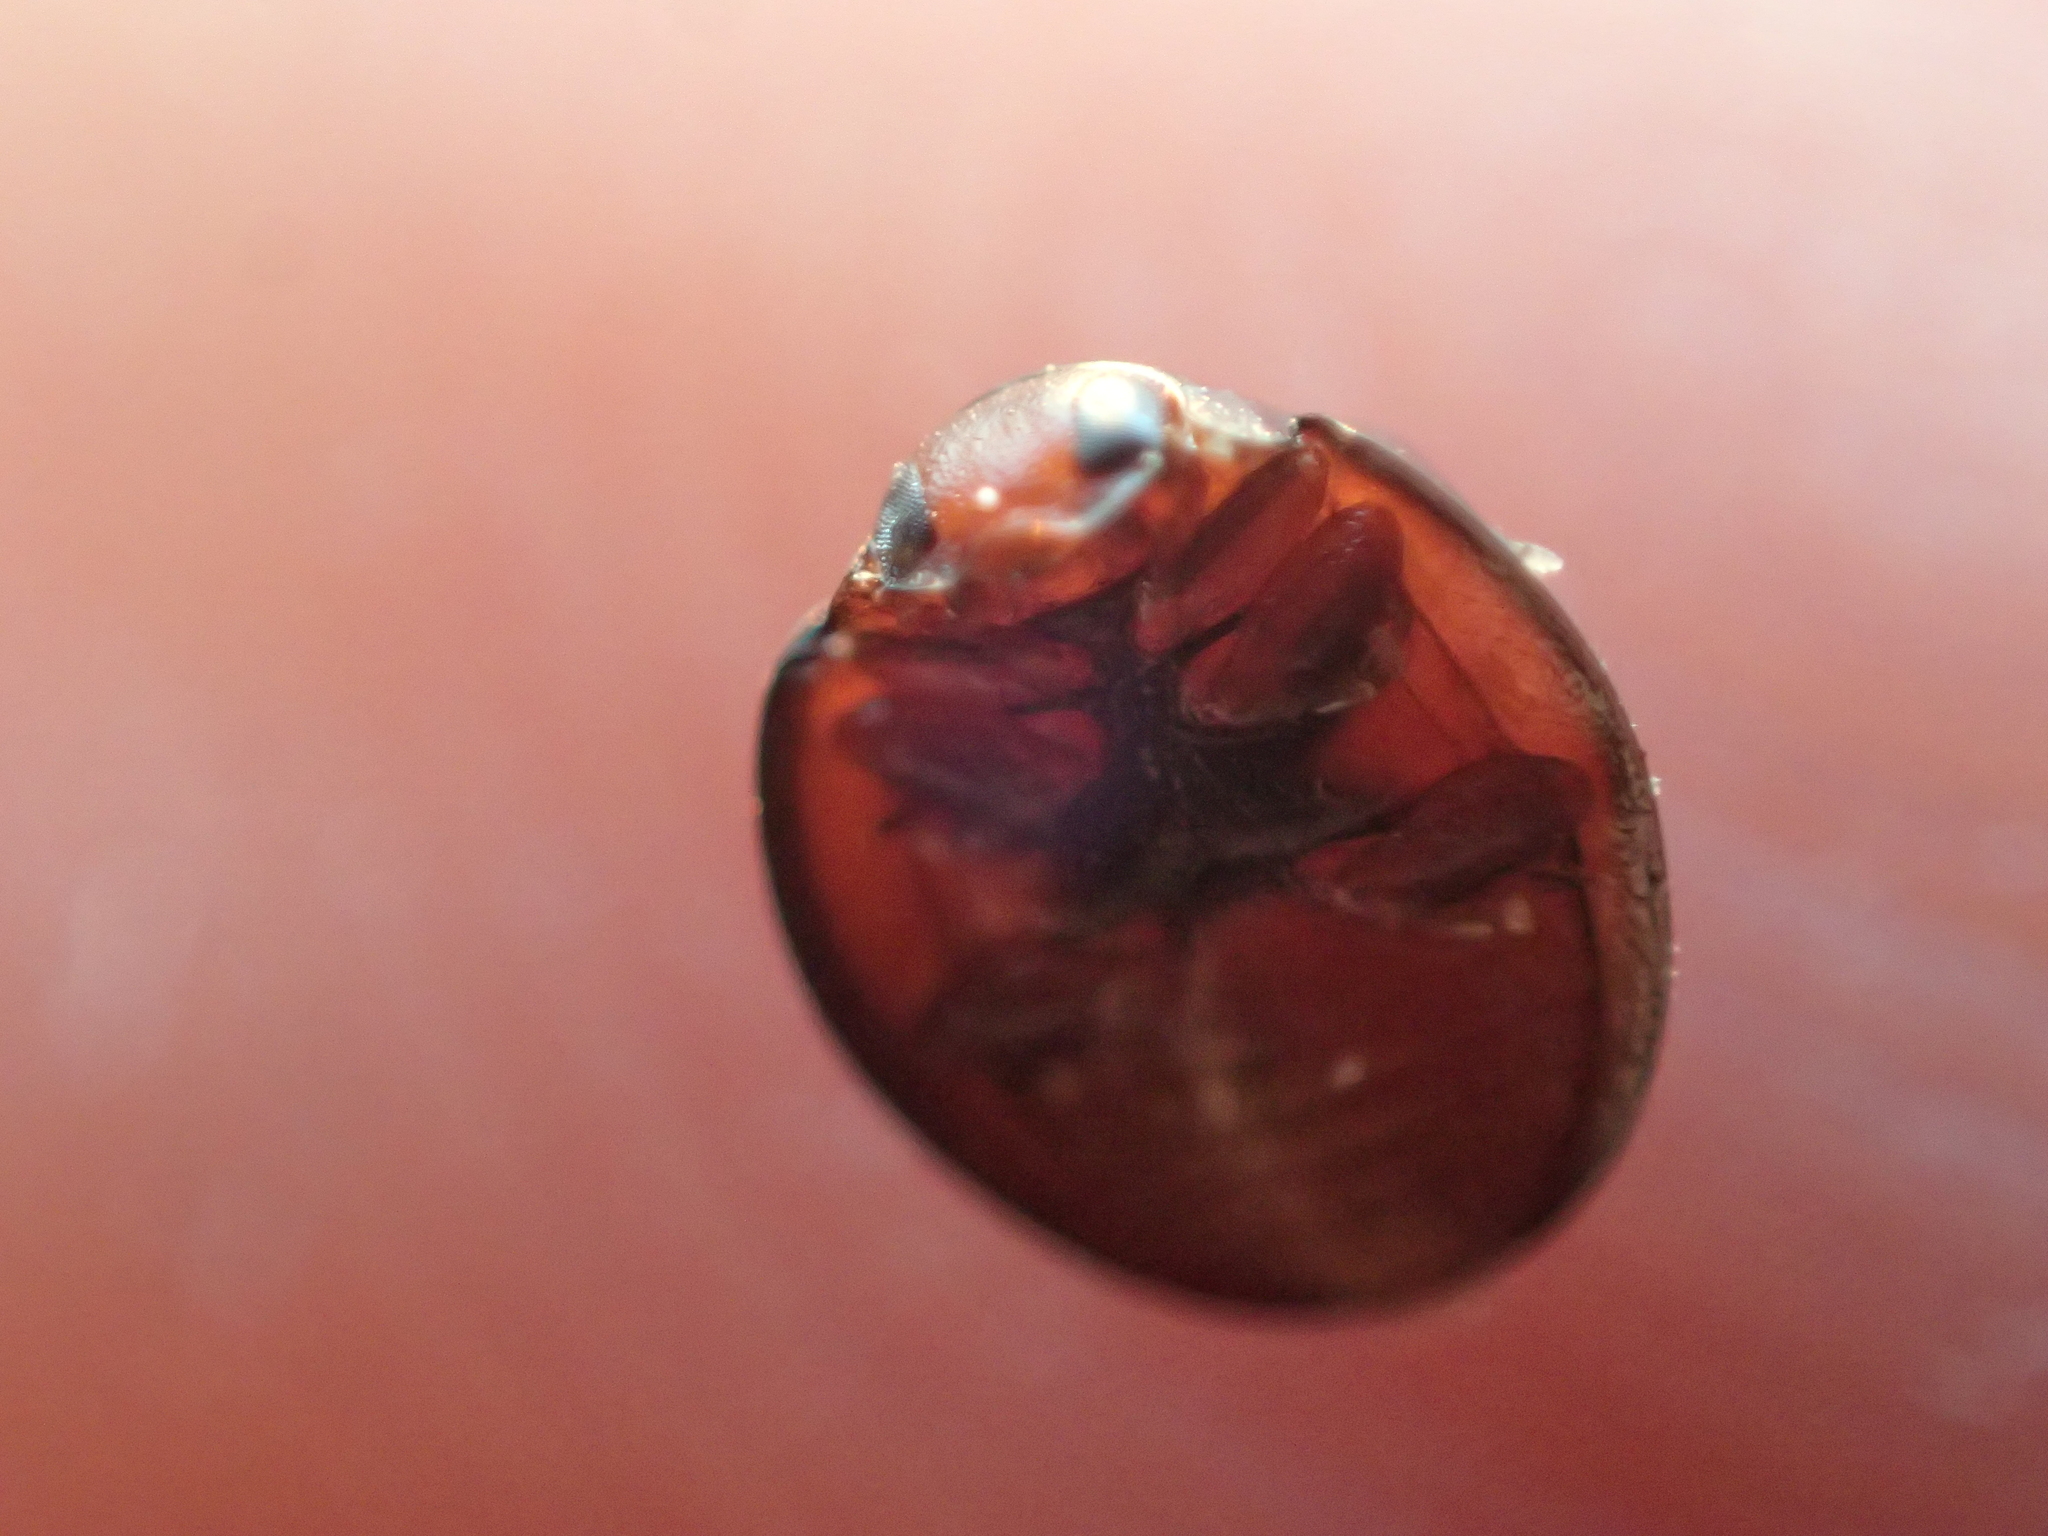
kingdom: Animalia
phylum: Arthropoda
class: Insecta
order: Coleoptera
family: Coccinellidae
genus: Chilocorus
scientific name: Chilocorus bipustulatus
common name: Heather ladybird
